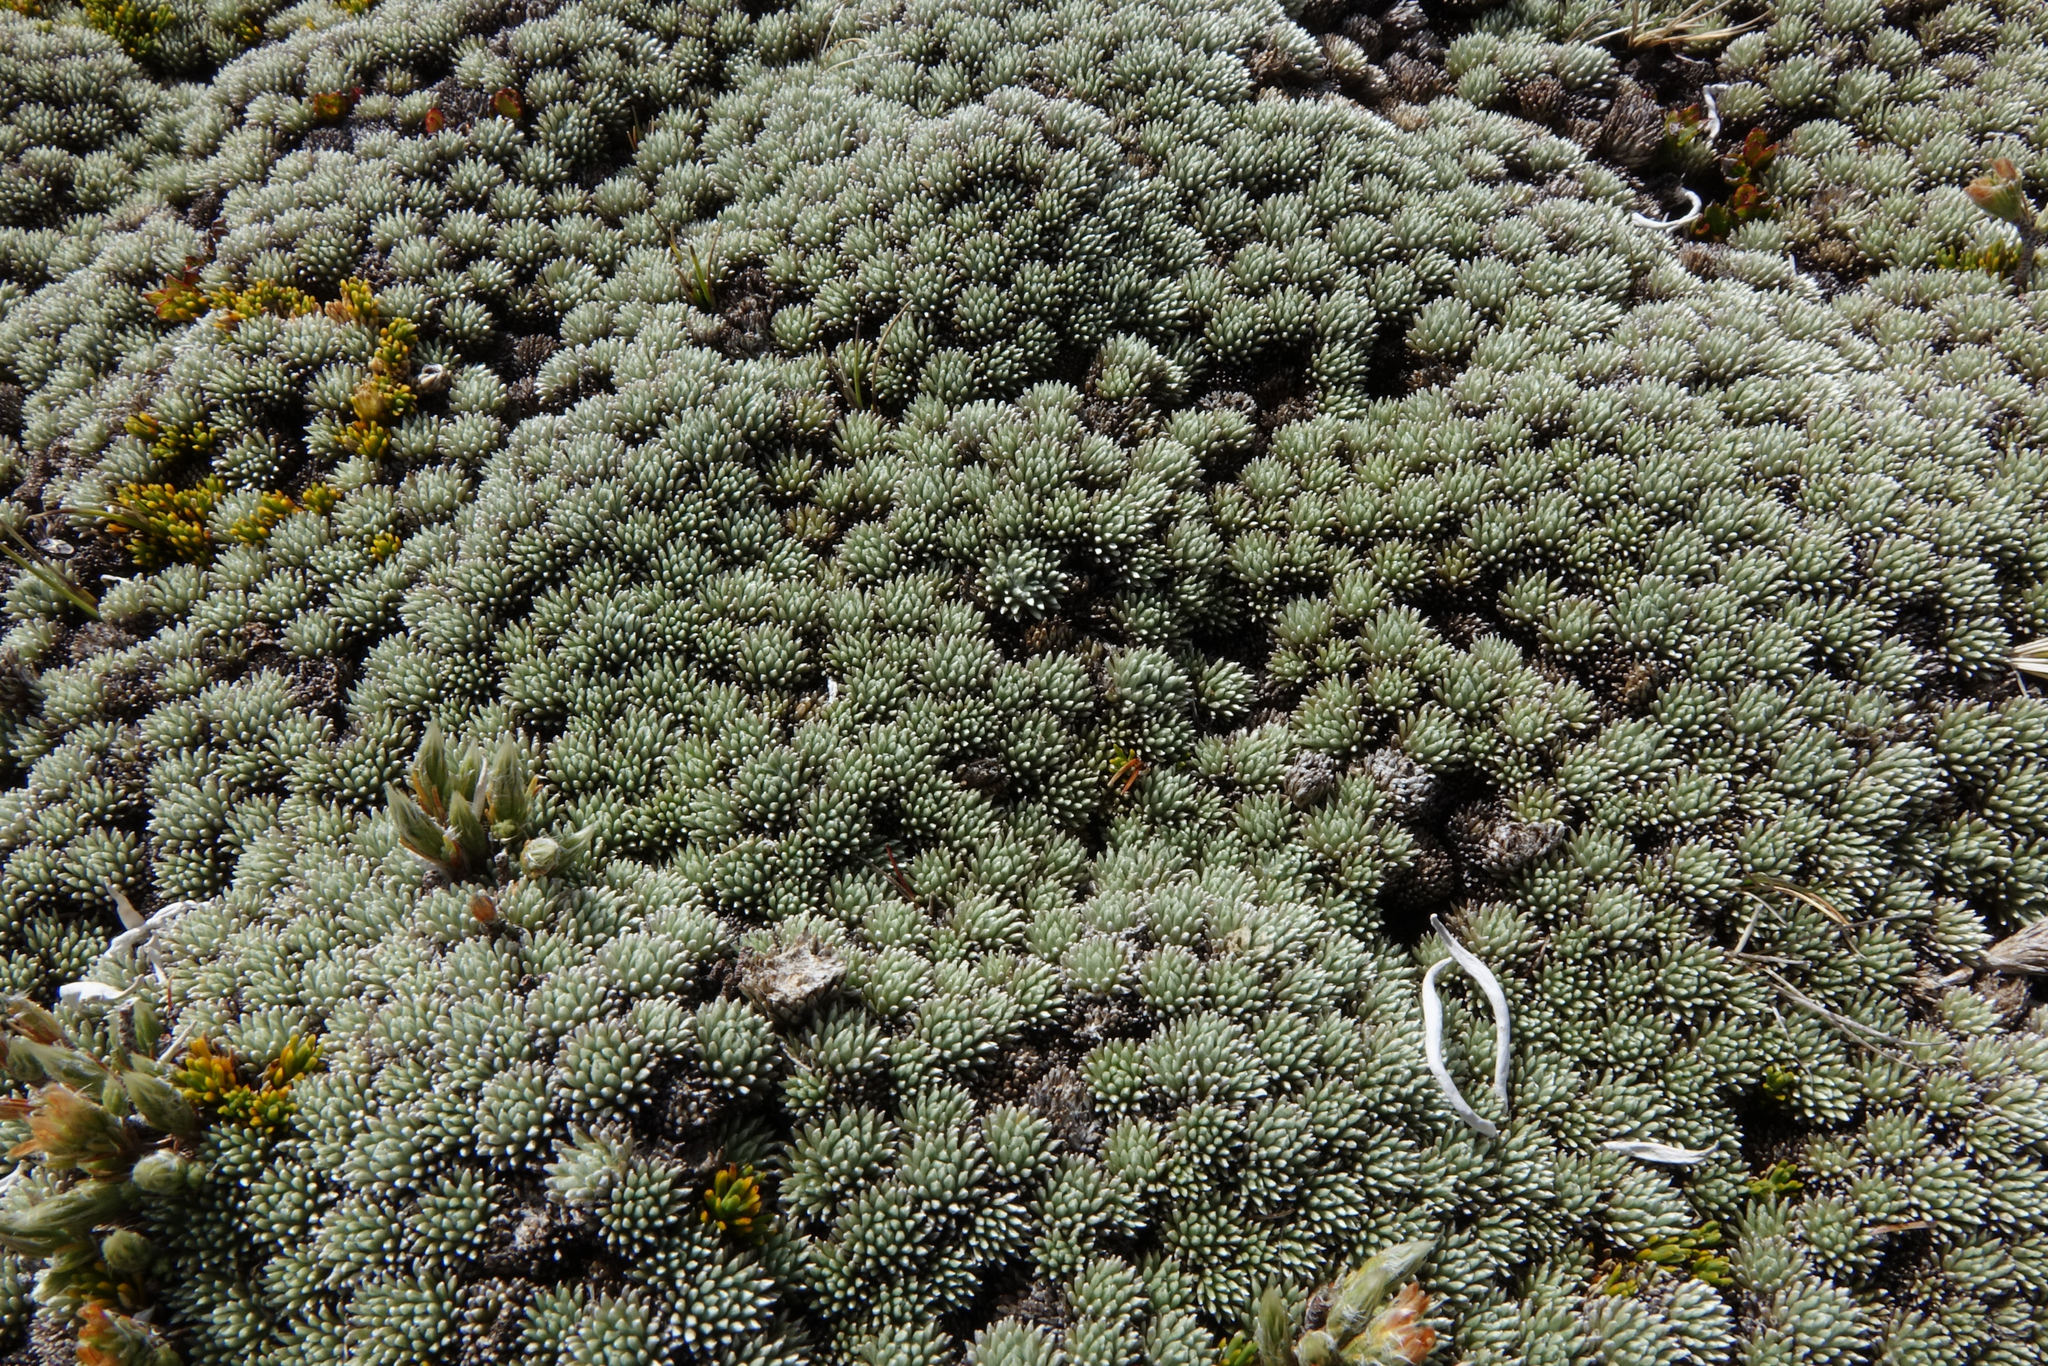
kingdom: Plantae
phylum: Tracheophyta
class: Magnoliopsida
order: Asterales
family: Asteraceae
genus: Celmisia
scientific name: Celmisia argentea
